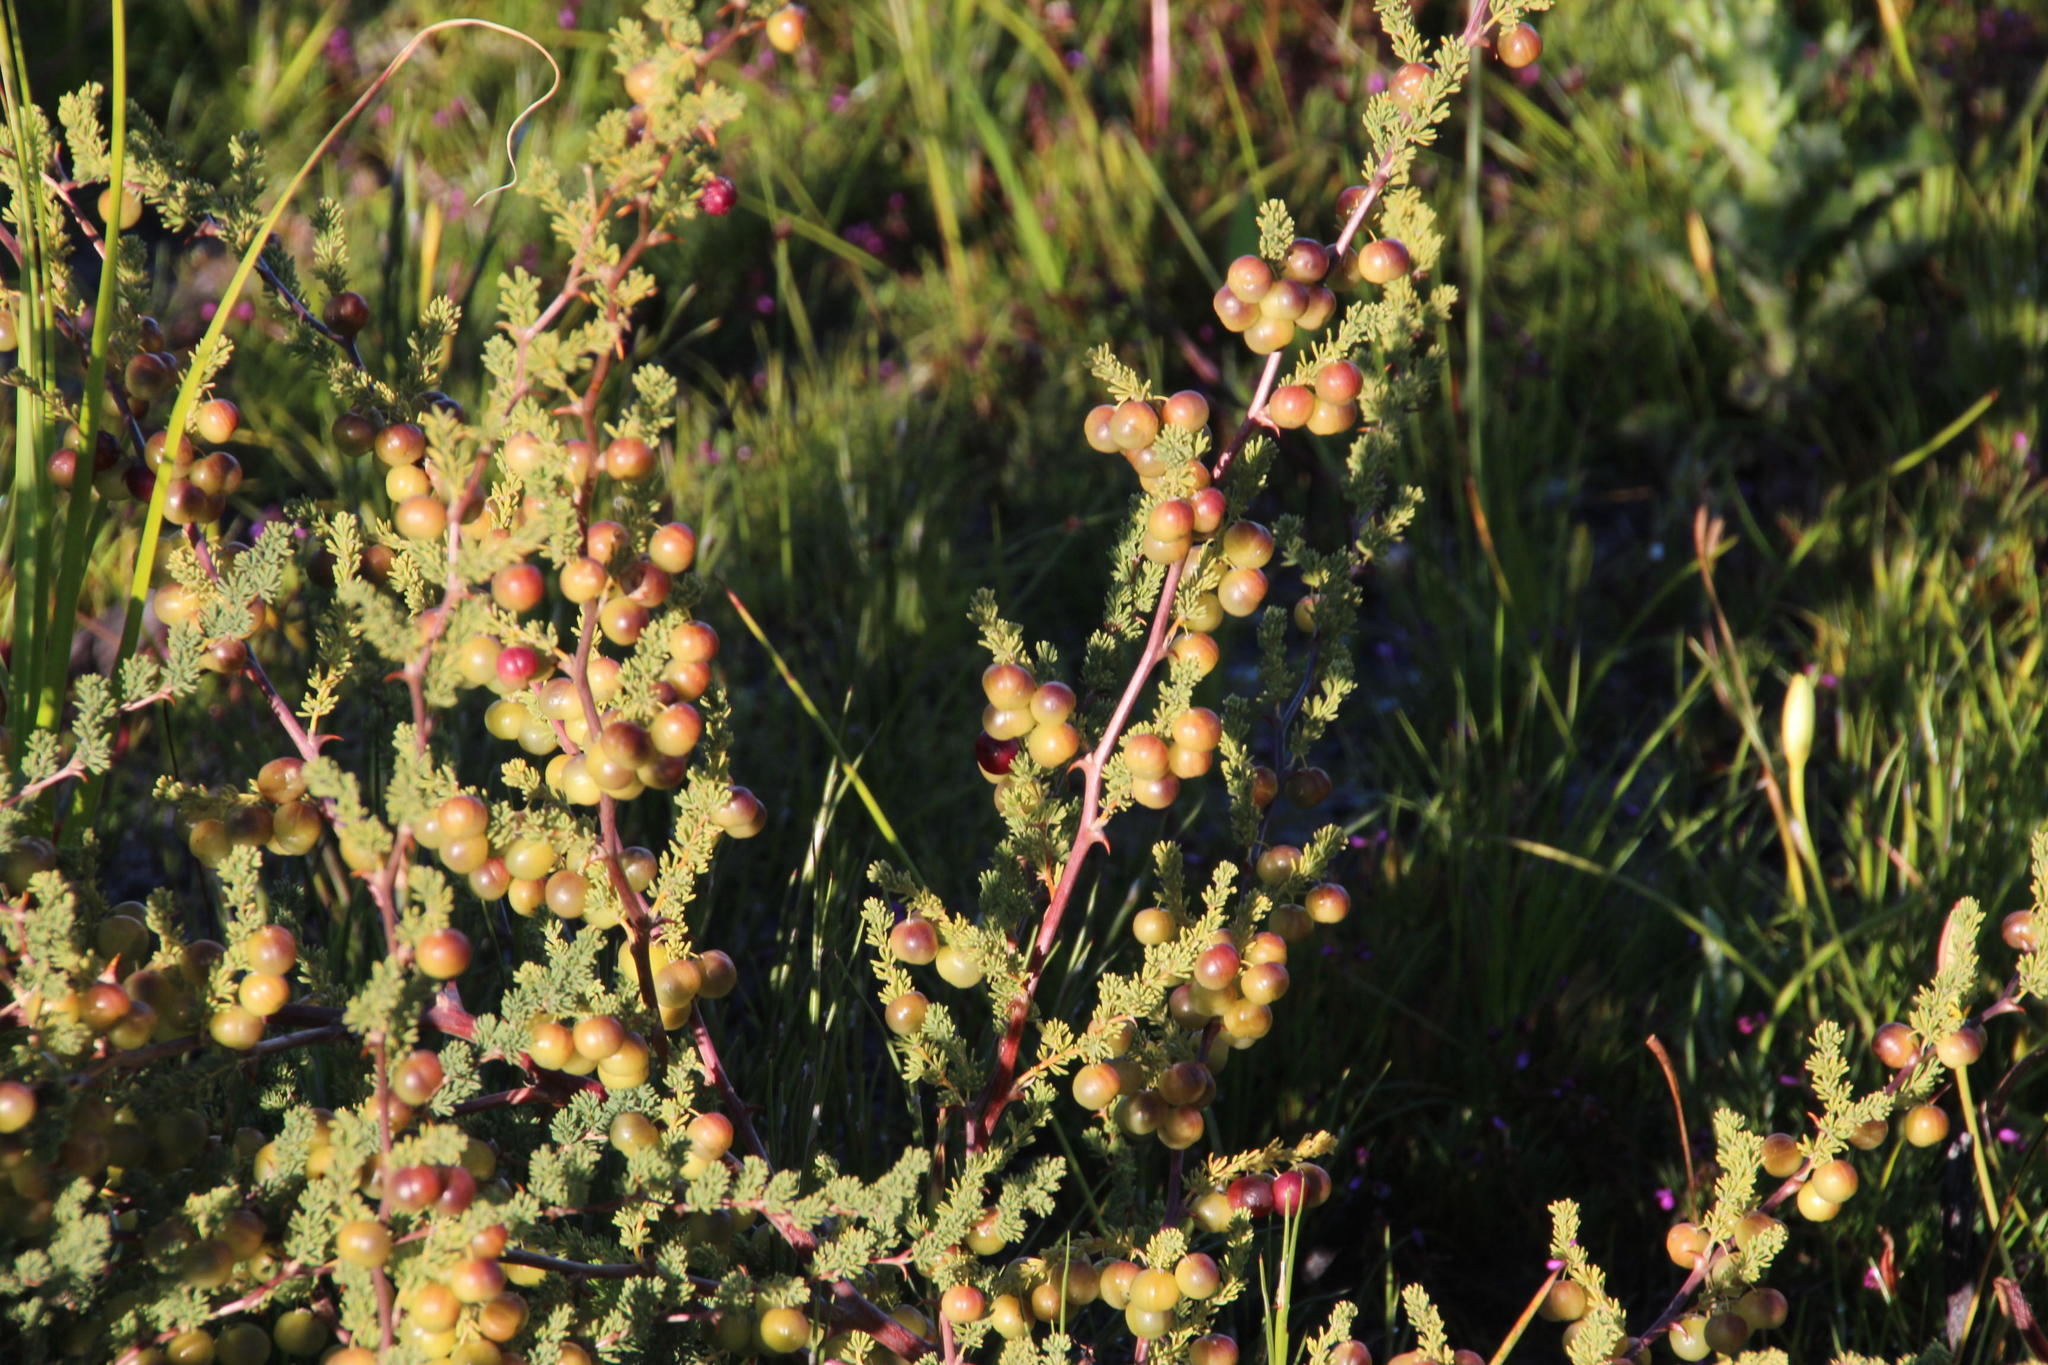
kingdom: Plantae
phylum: Tracheophyta
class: Liliopsida
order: Asparagales
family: Asparagaceae
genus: Asparagus
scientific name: Asparagus rubicundus
